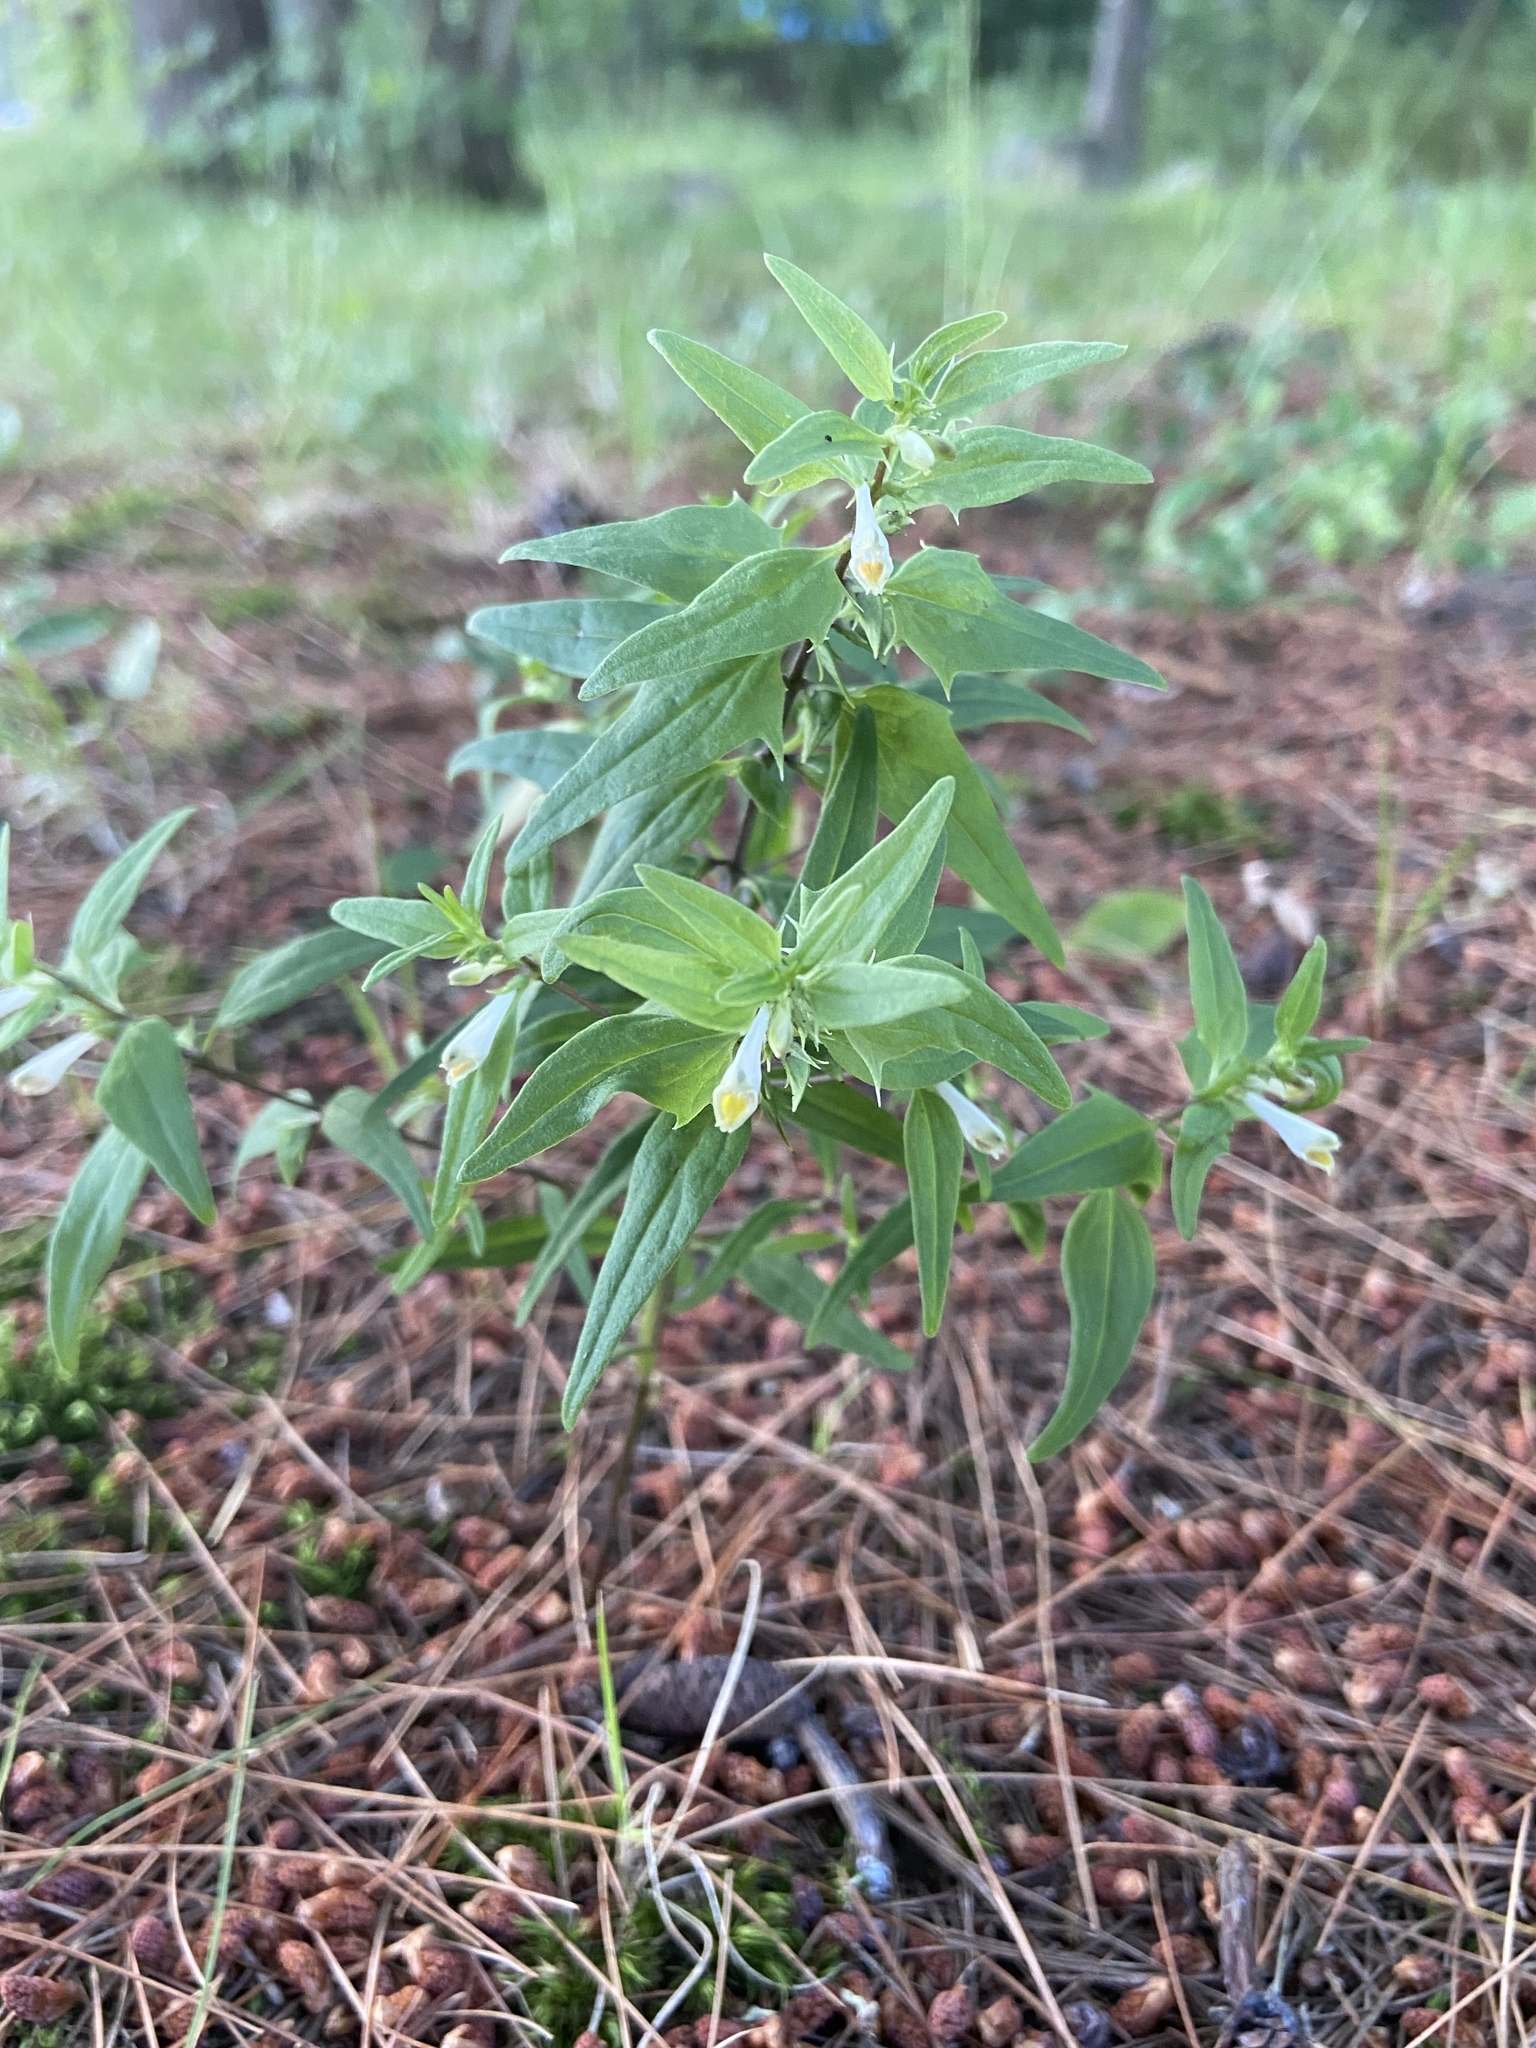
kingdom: Plantae
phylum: Tracheophyta
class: Magnoliopsida
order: Lamiales
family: Orobanchaceae
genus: Melampyrum
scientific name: Melampyrum lineare
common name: American cow-wheat
